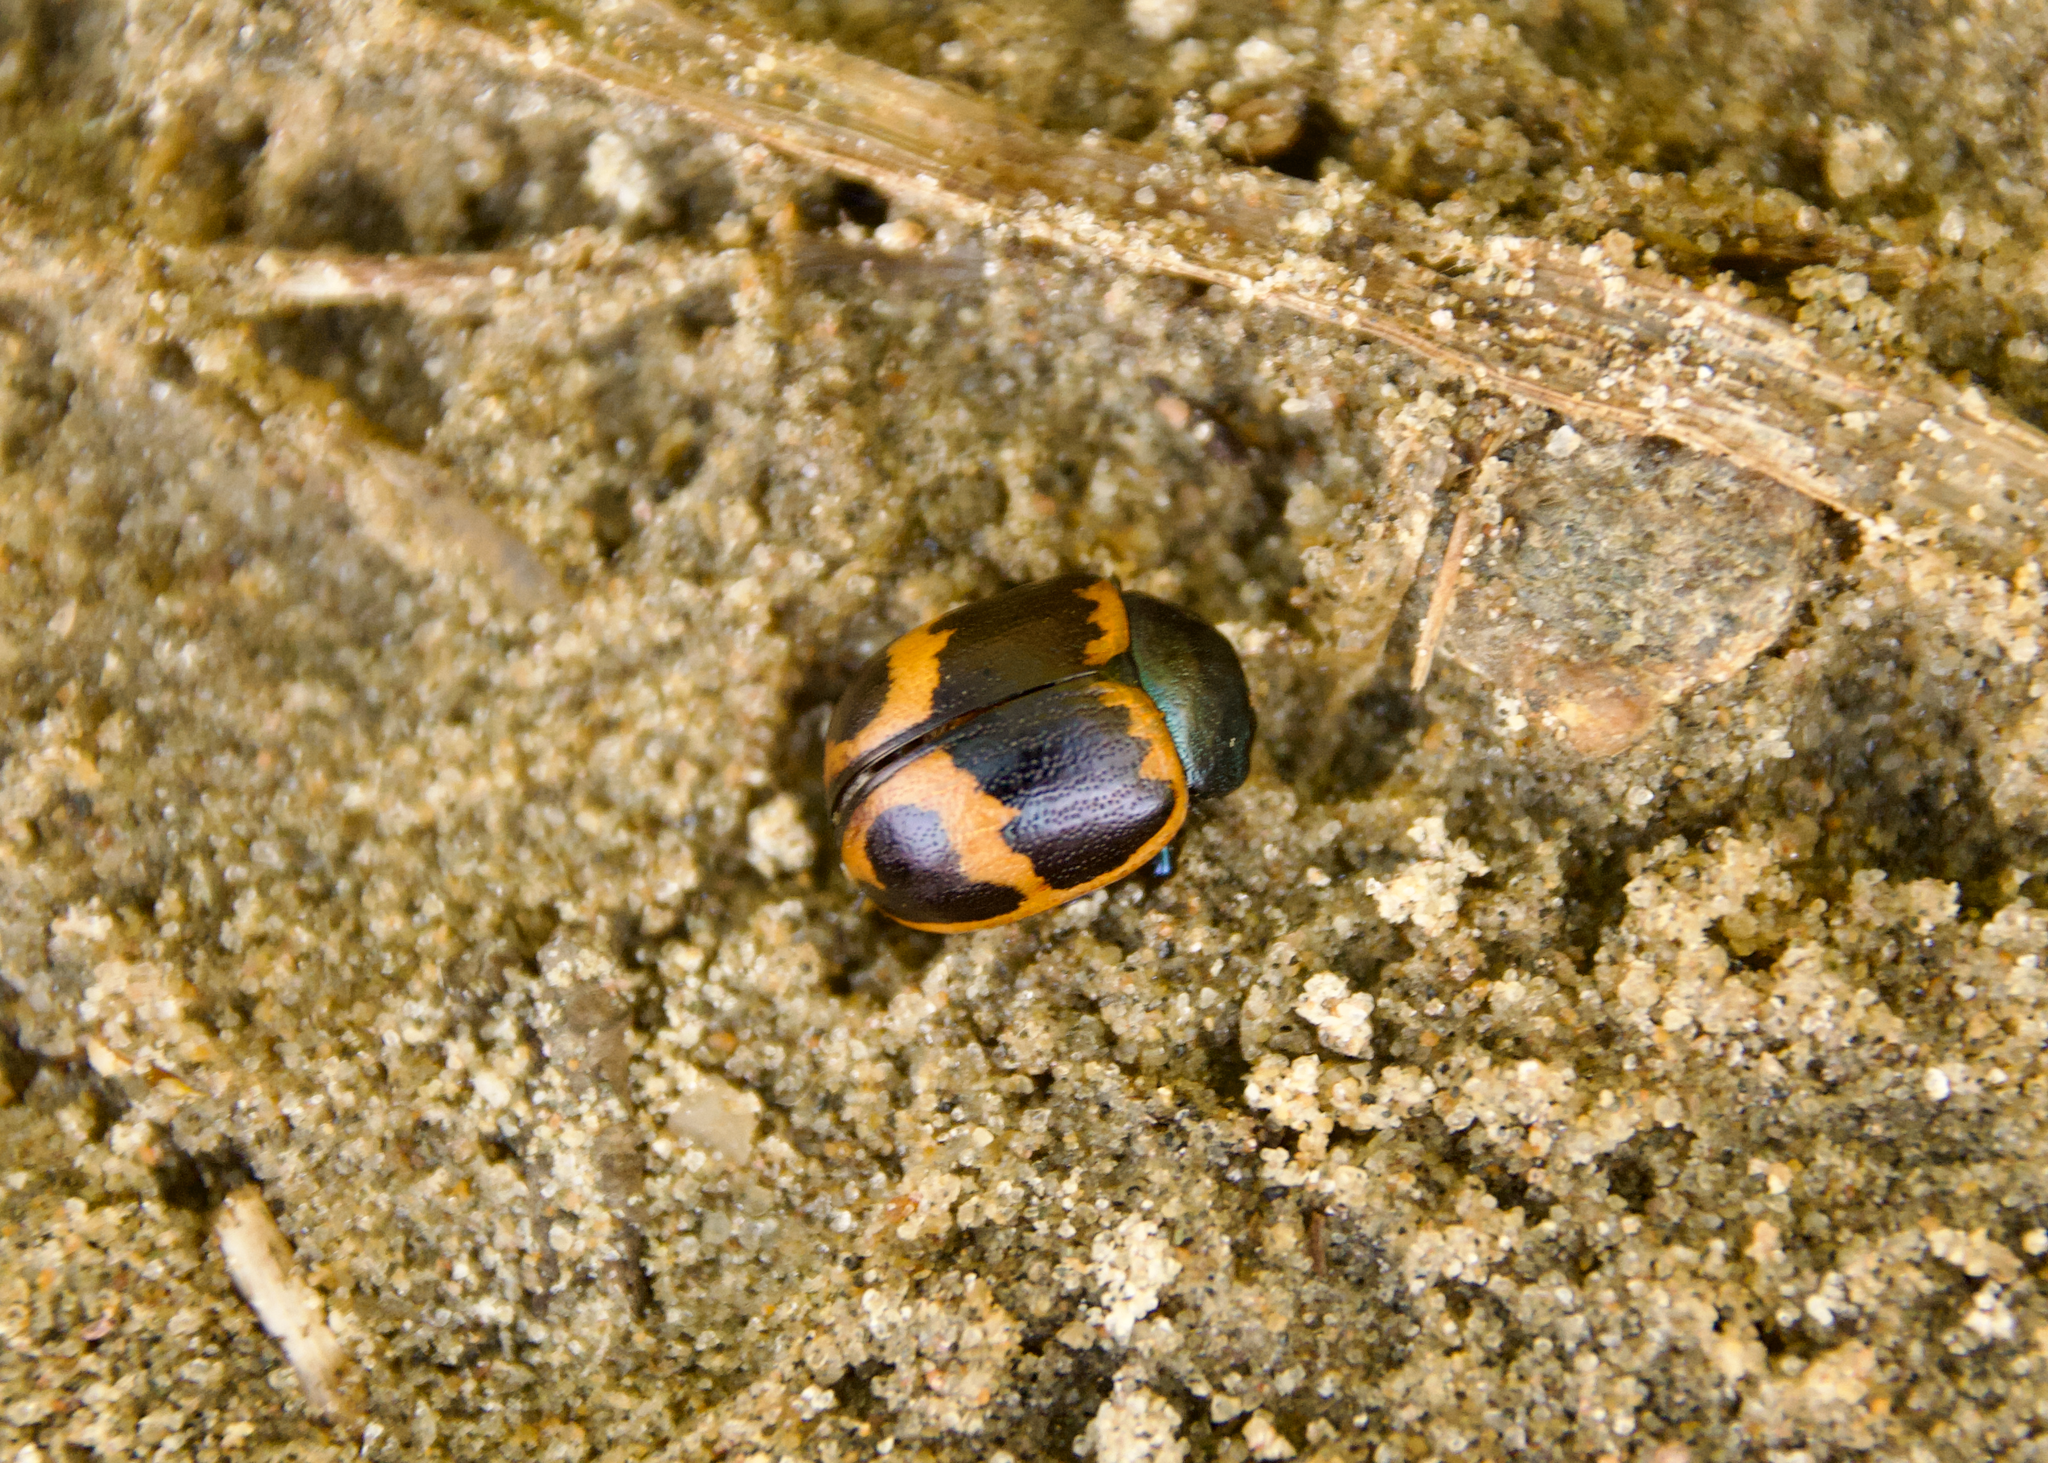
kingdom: Animalia
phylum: Arthropoda
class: Insecta
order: Coleoptera
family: Chrysomelidae
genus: Labidomera
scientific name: Labidomera clivicollis
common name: Swamp milkweed leaf beetle
